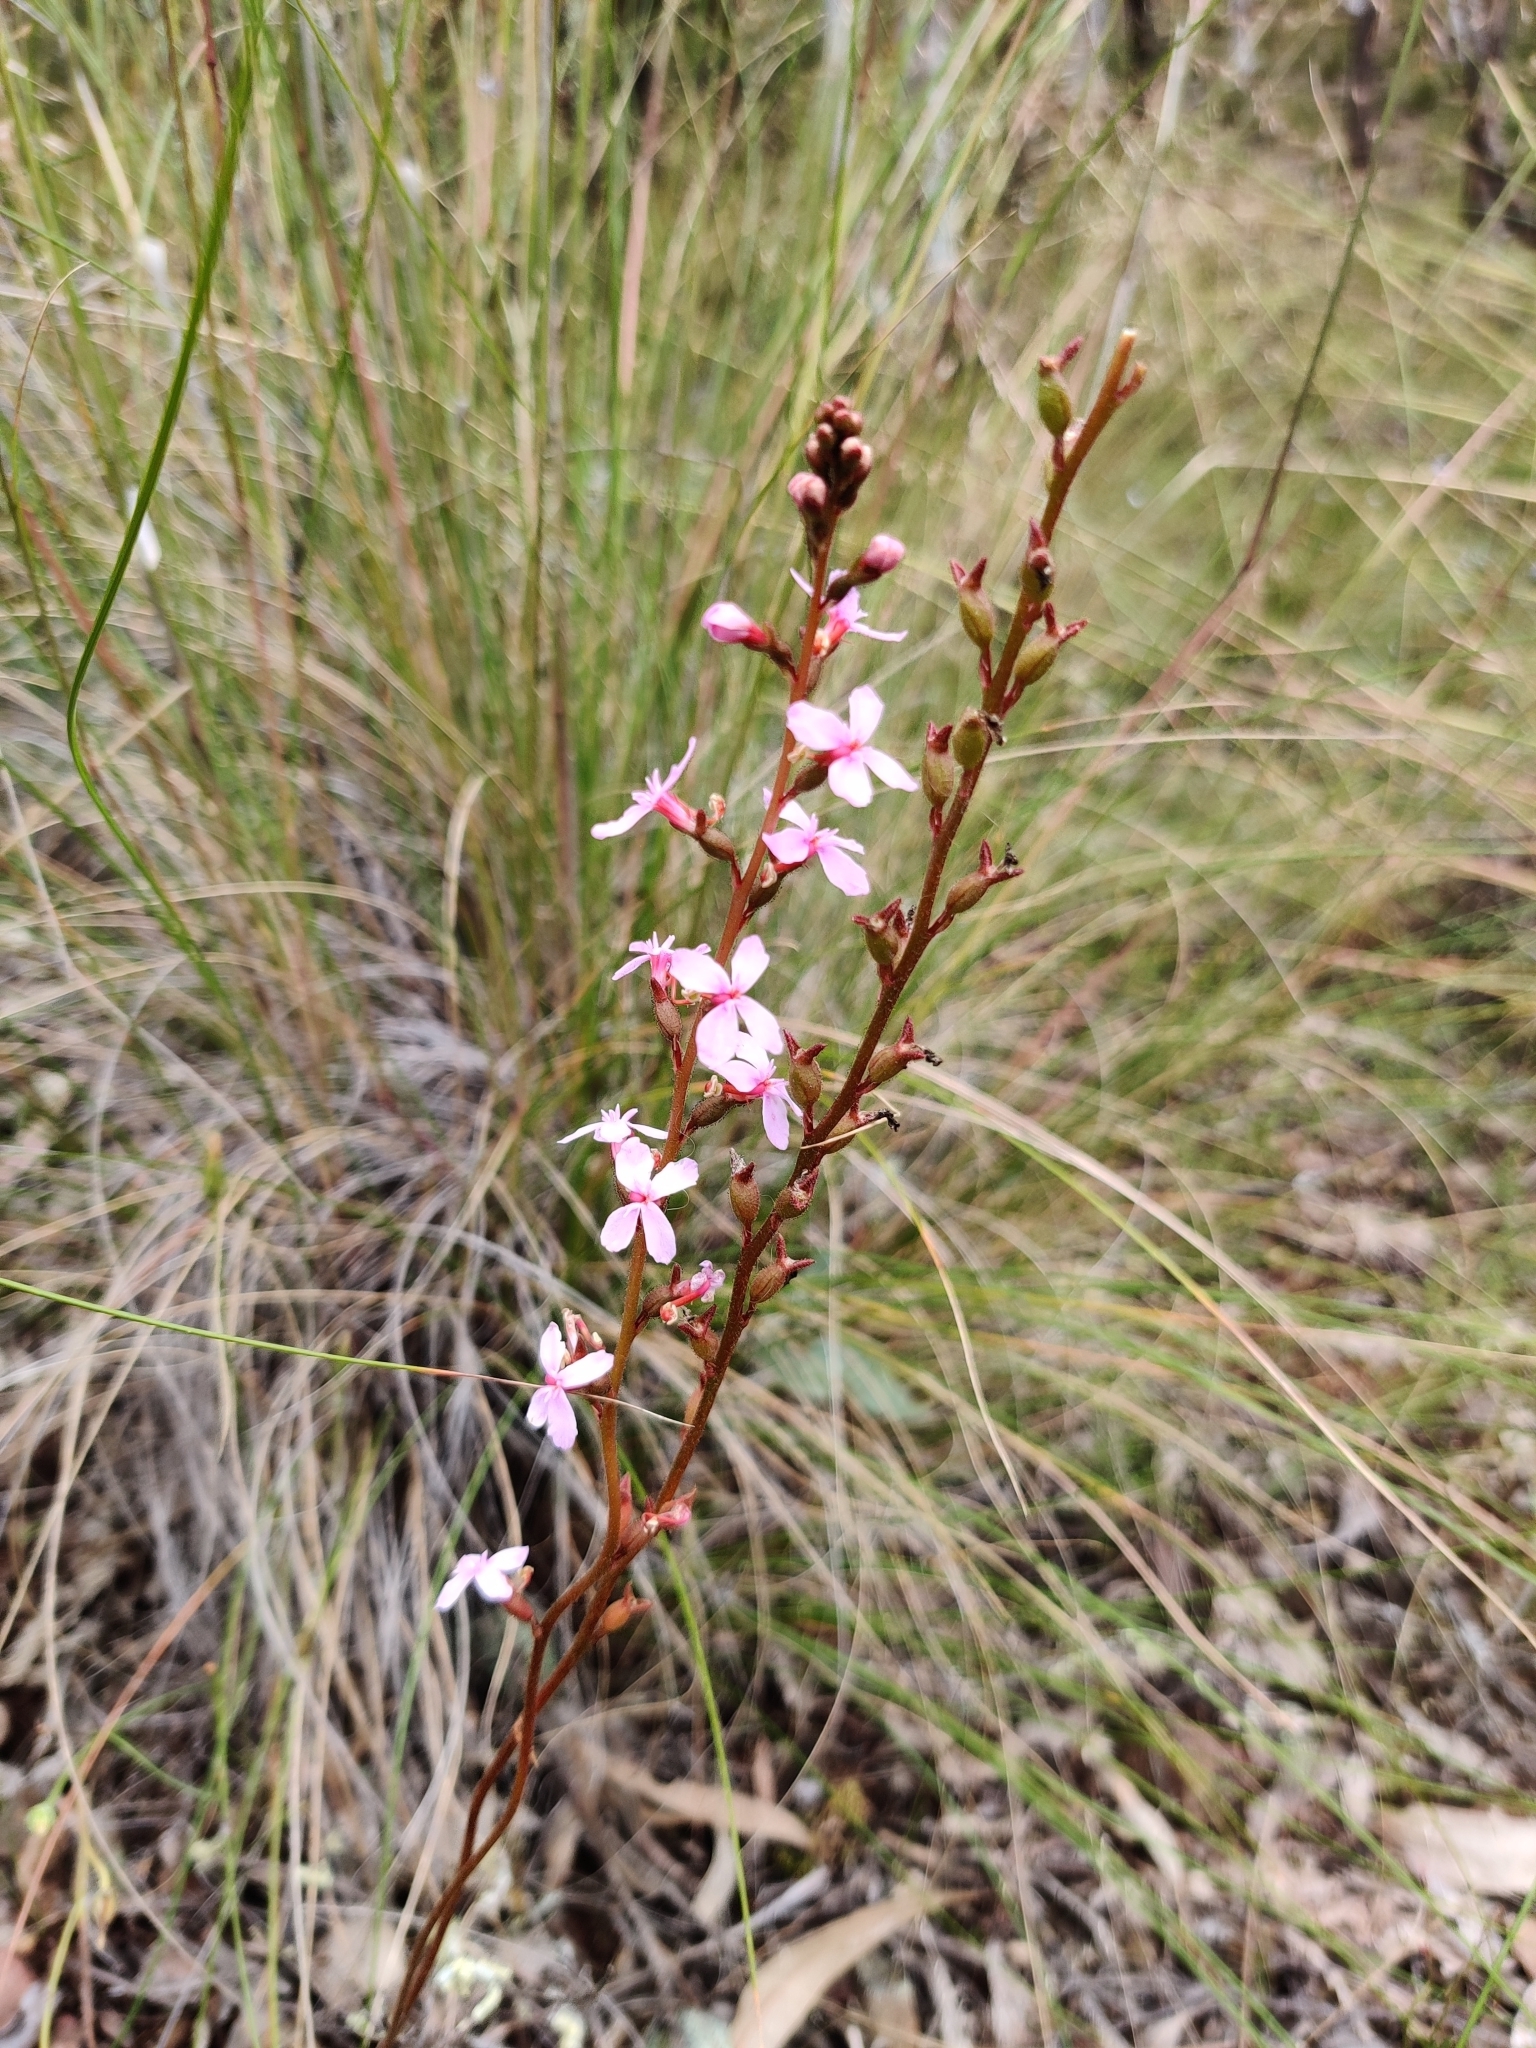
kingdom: Plantae
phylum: Tracheophyta
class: Magnoliopsida
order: Asterales
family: Stylidiaceae
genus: Stylidium
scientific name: Stylidium
